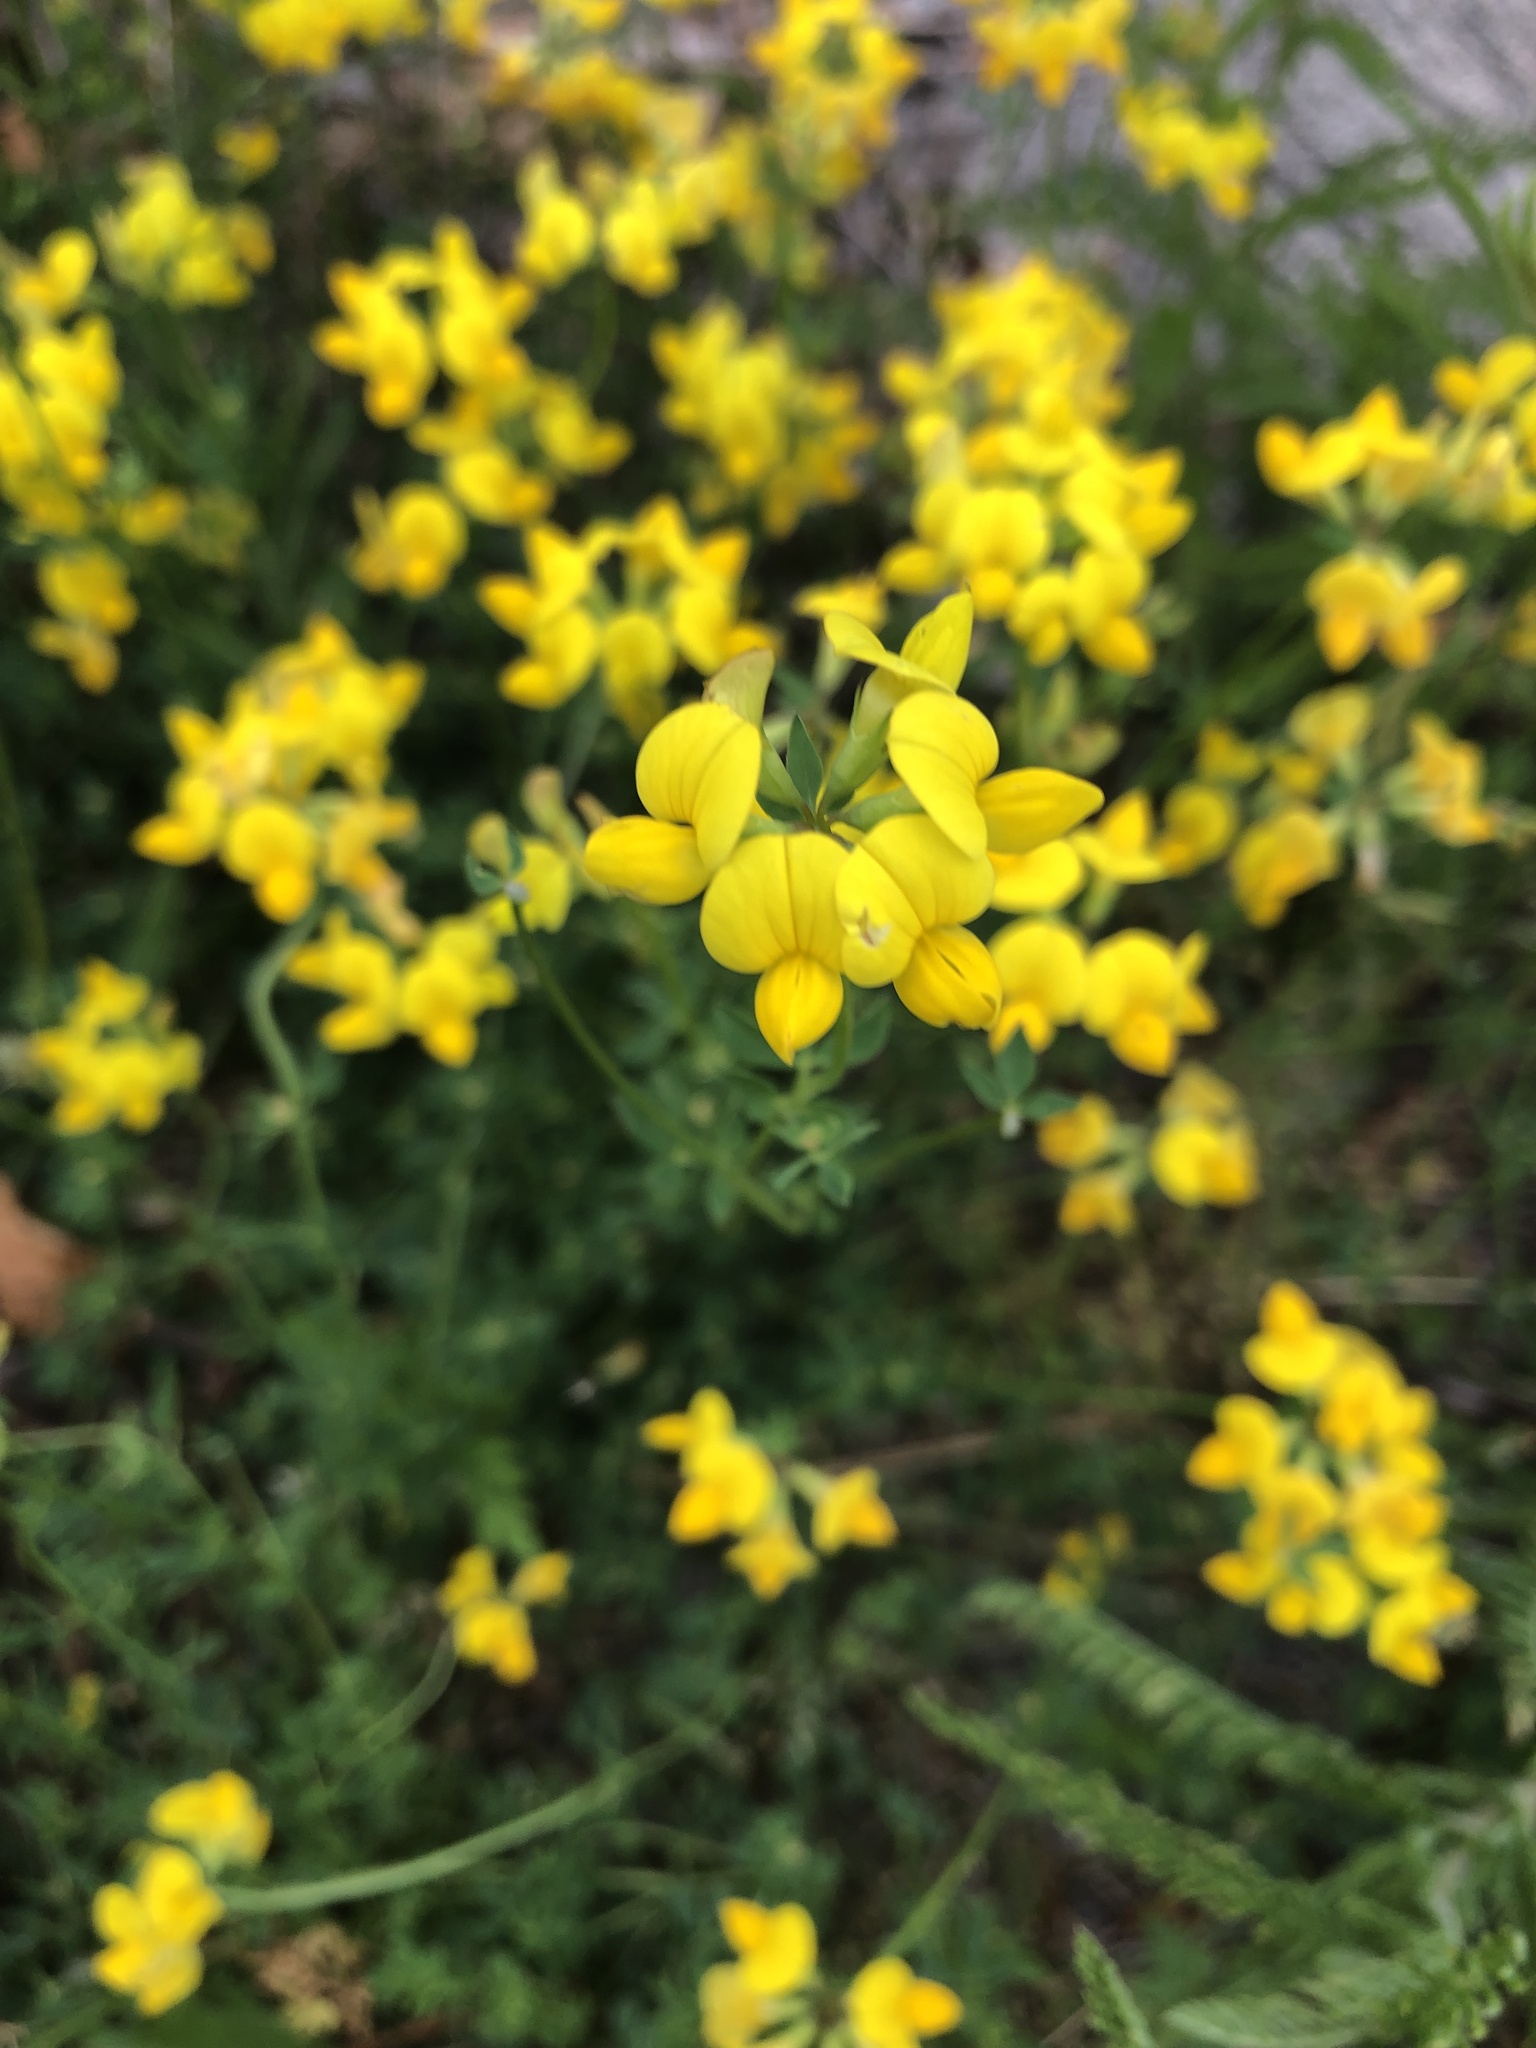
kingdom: Plantae
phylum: Tracheophyta
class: Magnoliopsida
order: Fabales
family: Fabaceae
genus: Lotus
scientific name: Lotus corniculatus
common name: Common bird's-foot-trefoil
